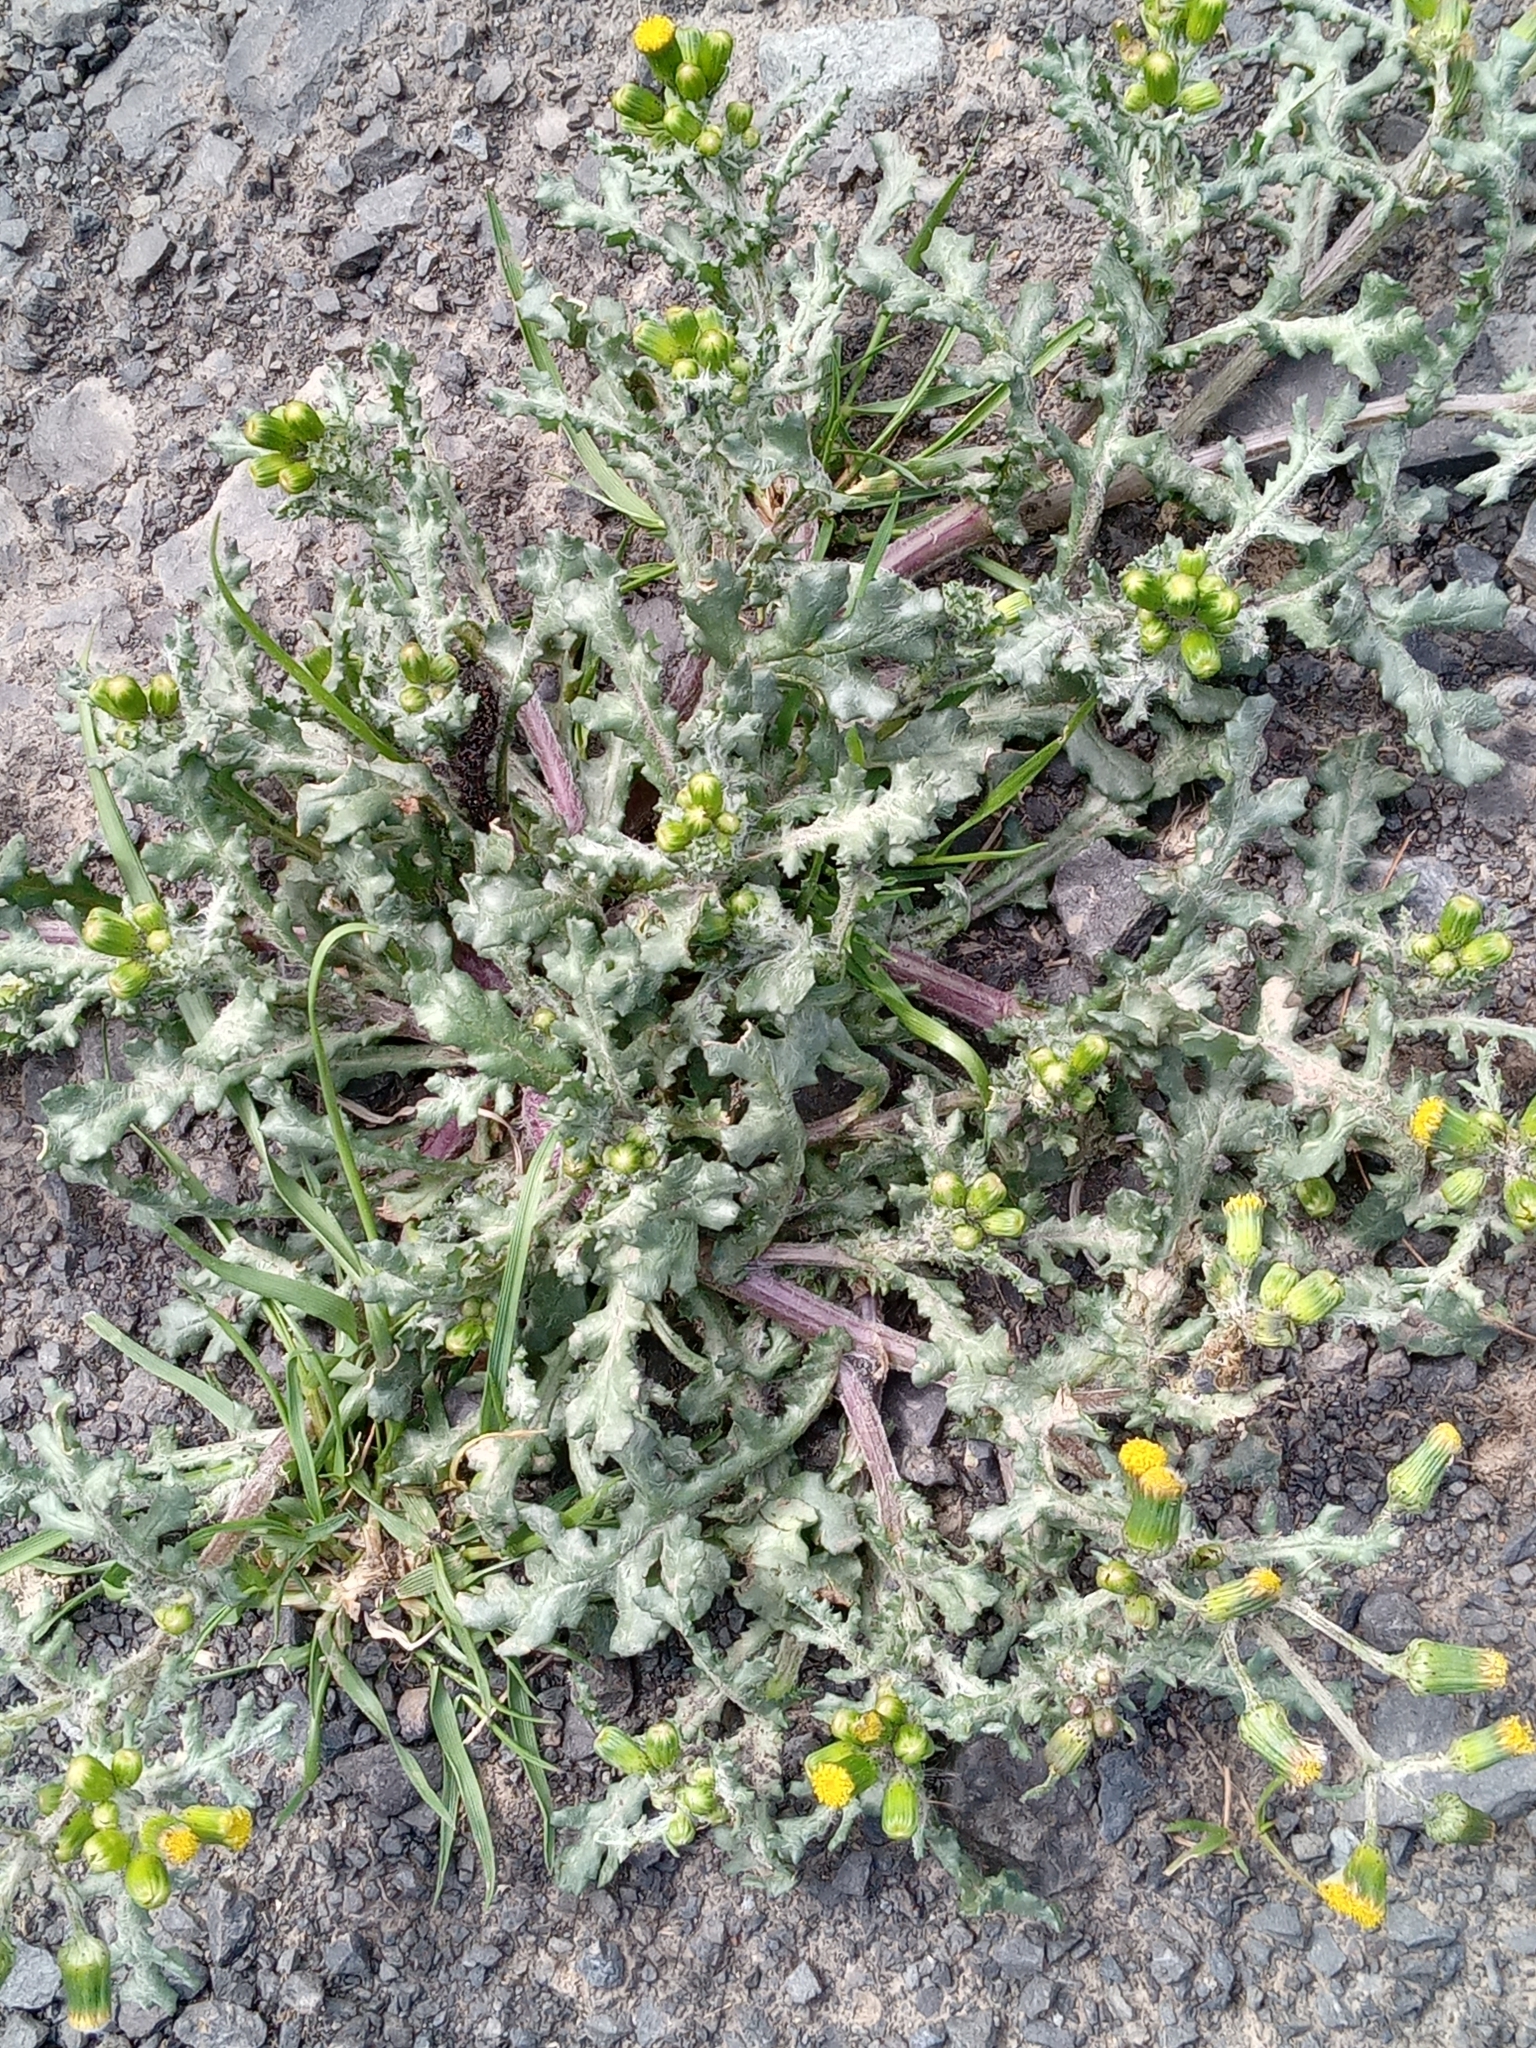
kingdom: Plantae
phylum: Tracheophyta
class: Magnoliopsida
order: Asterales
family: Asteraceae
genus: Senecio
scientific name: Senecio vulgaris
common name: Old-man-in-the-spring
